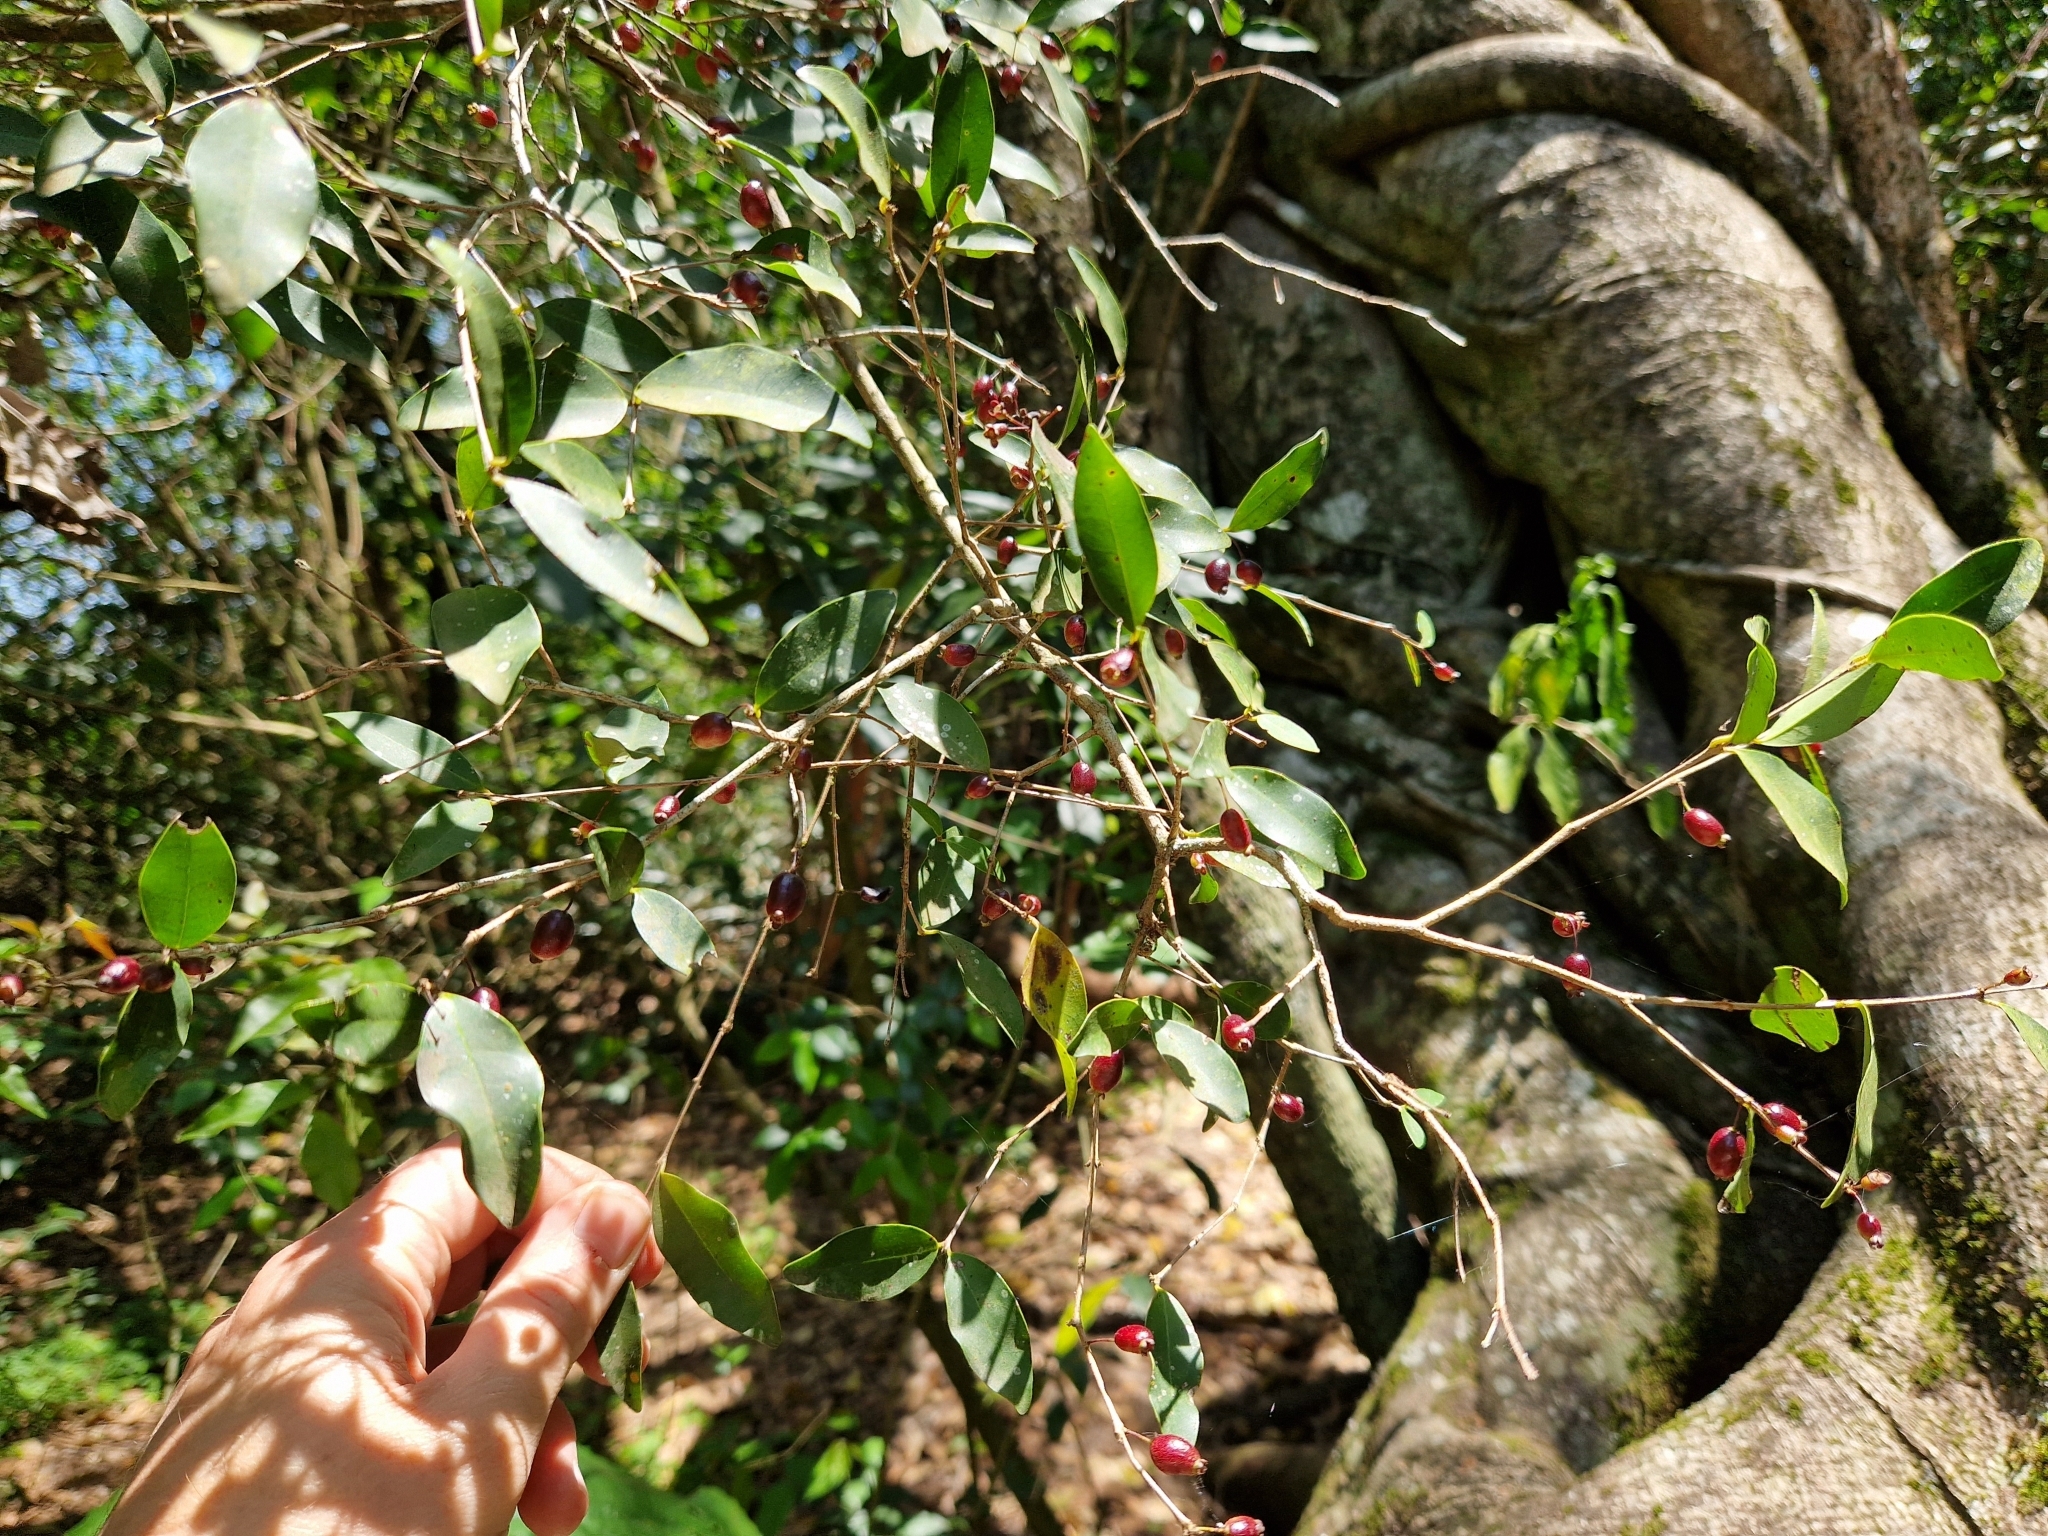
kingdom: Plantae
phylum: Tracheophyta
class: Magnoliopsida
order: Myrtales
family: Myrtaceae
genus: Eugenia
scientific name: Eugenia hiemalis
